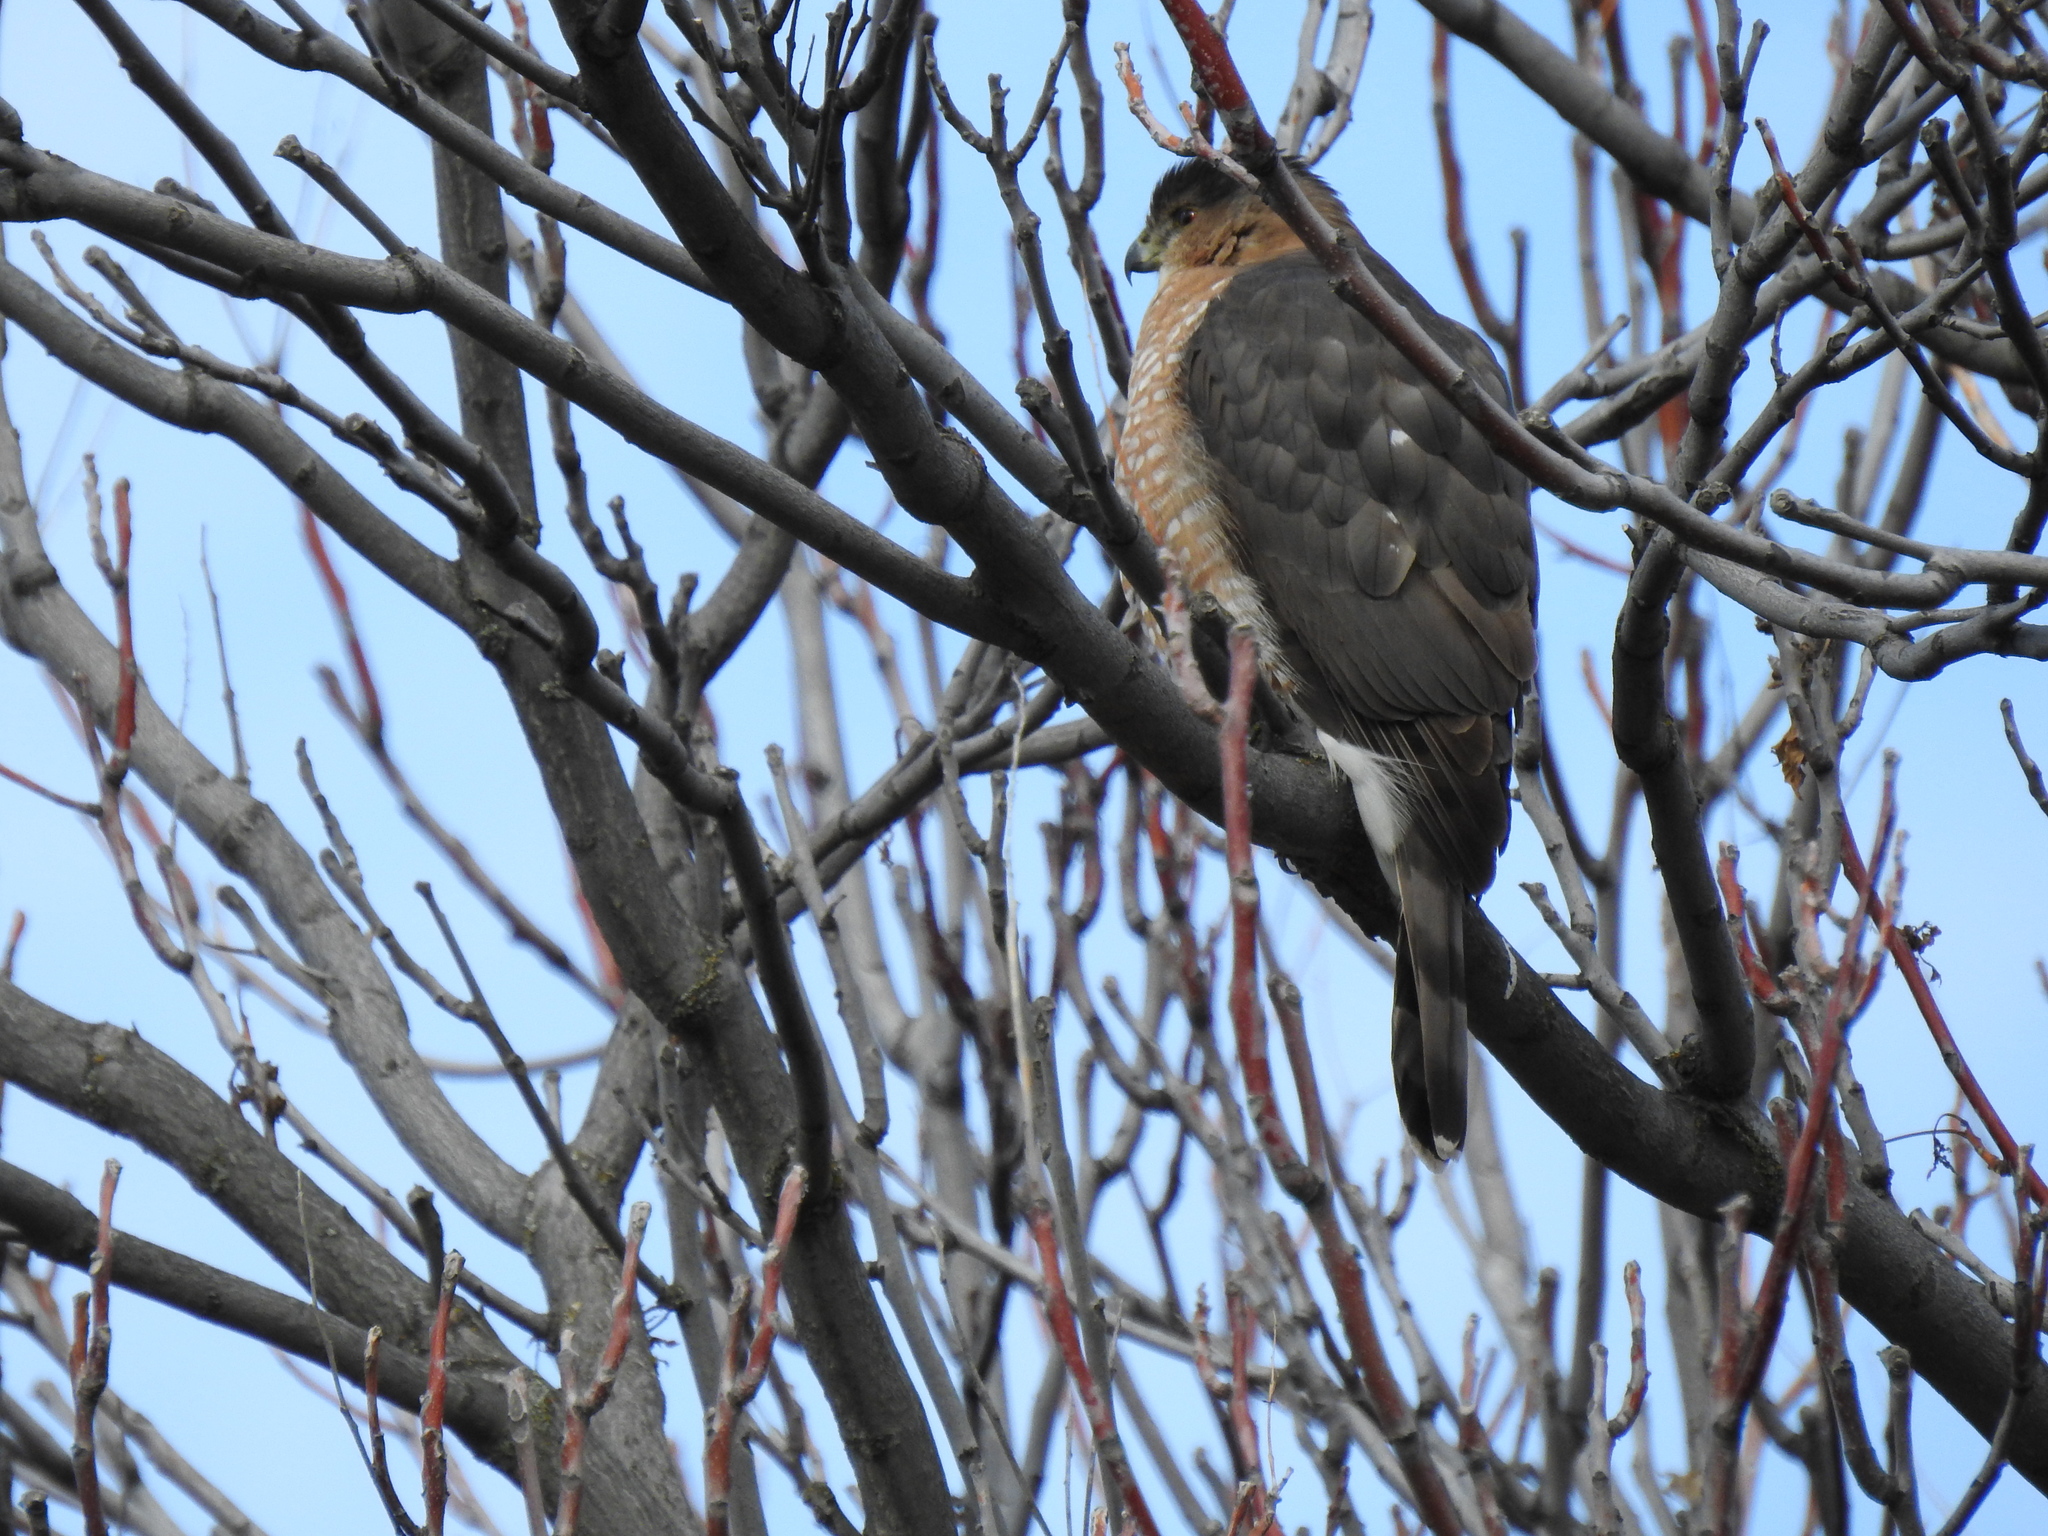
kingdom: Animalia
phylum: Chordata
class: Aves
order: Accipitriformes
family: Accipitridae
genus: Accipiter
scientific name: Accipiter cooperii
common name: Cooper's hawk
